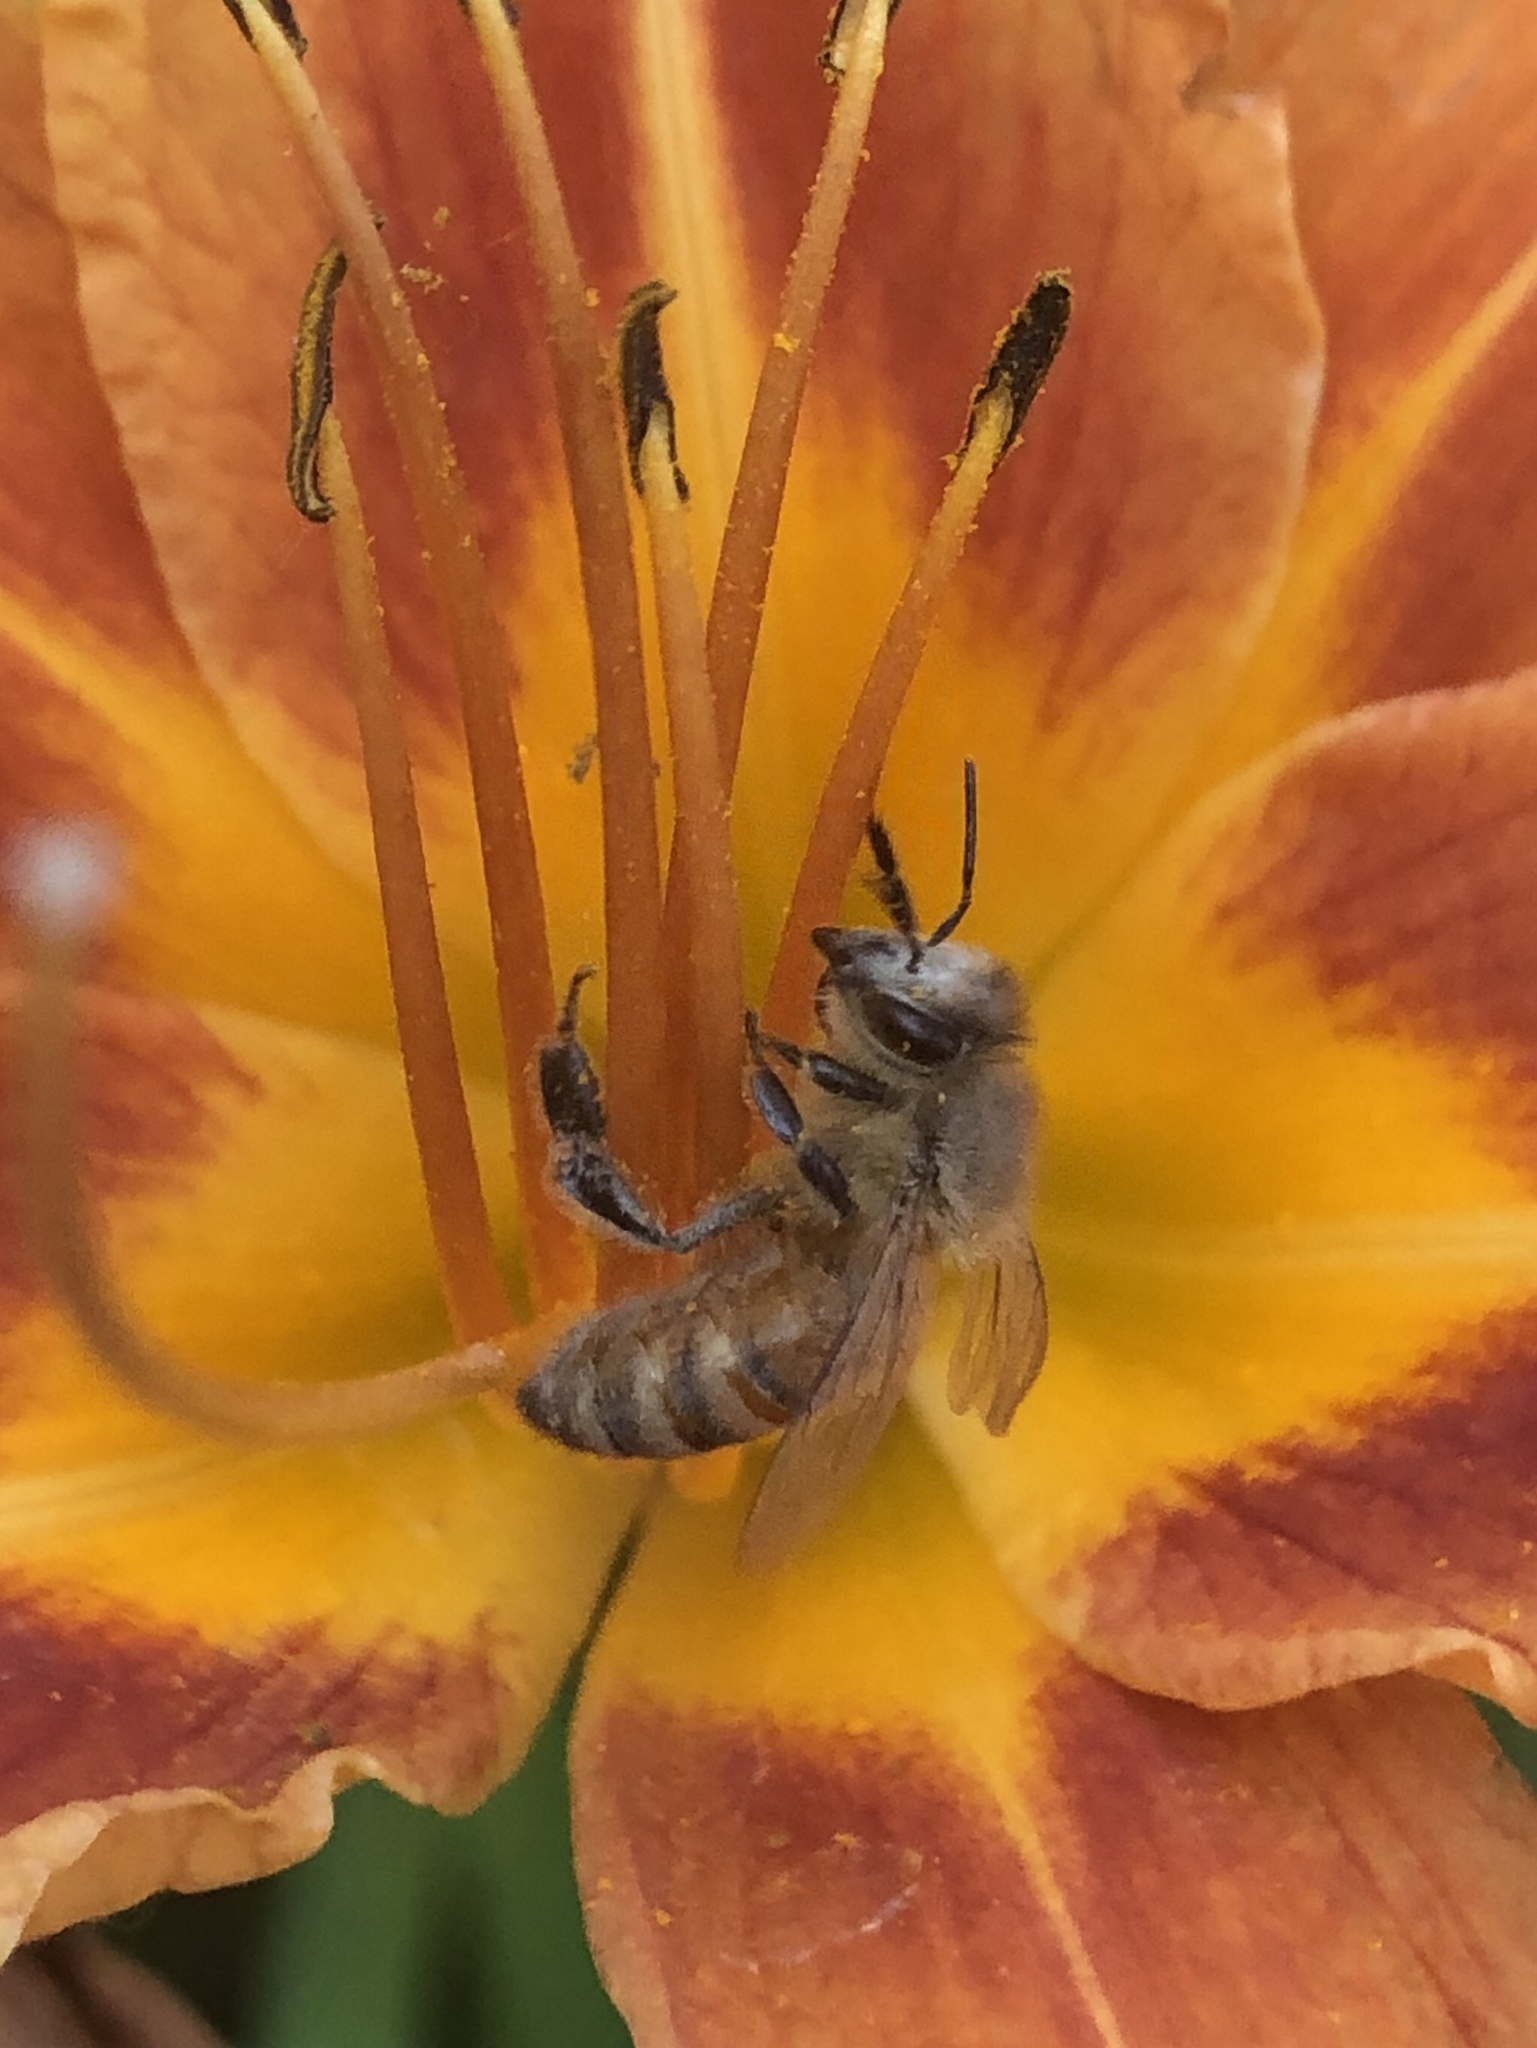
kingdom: Animalia
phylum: Arthropoda
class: Insecta
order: Hymenoptera
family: Apidae
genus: Apis
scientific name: Apis mellifera
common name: Honey bee
